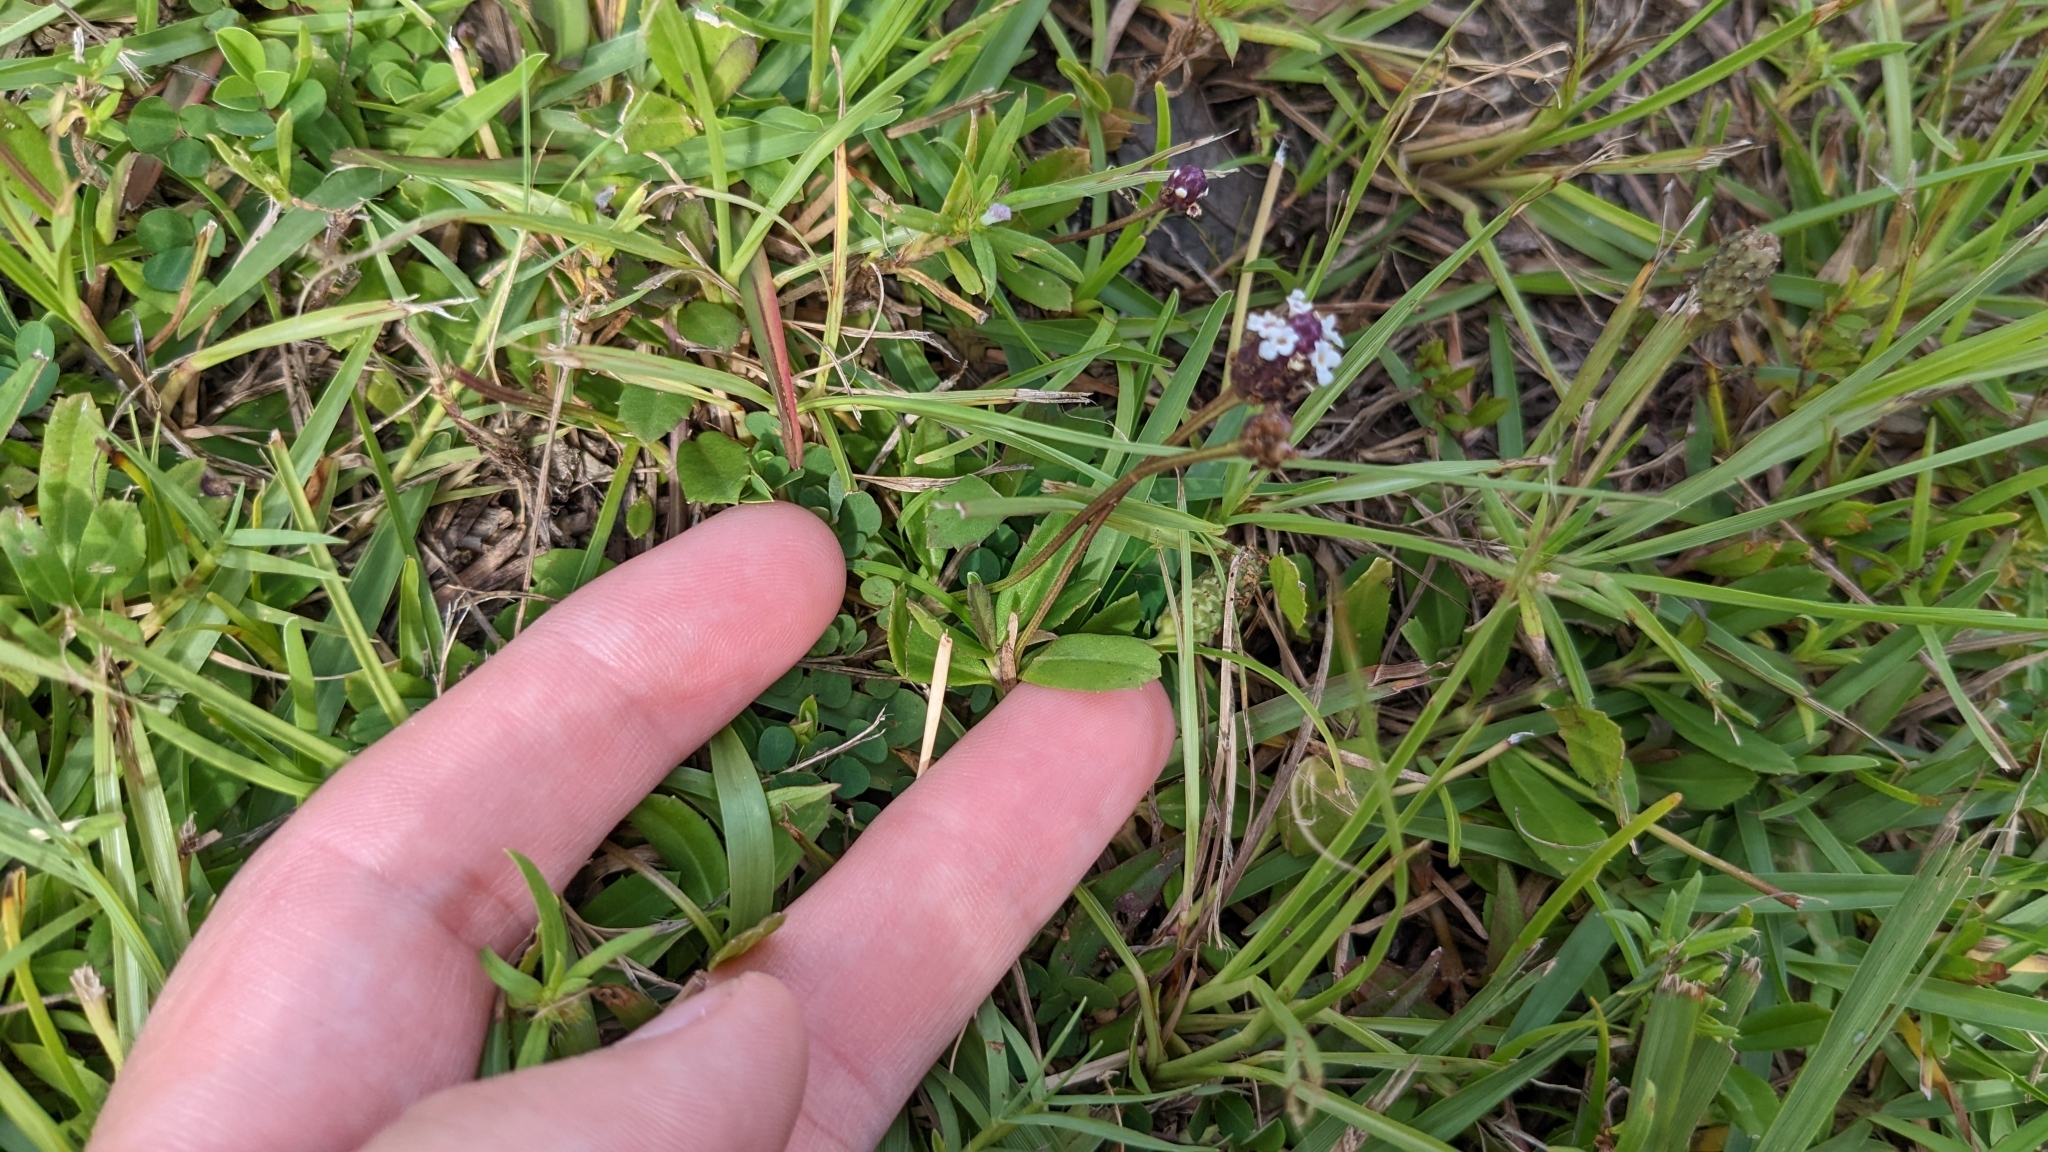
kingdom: Plantae
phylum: Tracheophyta
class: Magnoliopsida
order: Lamiales
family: Verbenaceae
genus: Phyla
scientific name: Phyla nodiflora
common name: Frogfruit
